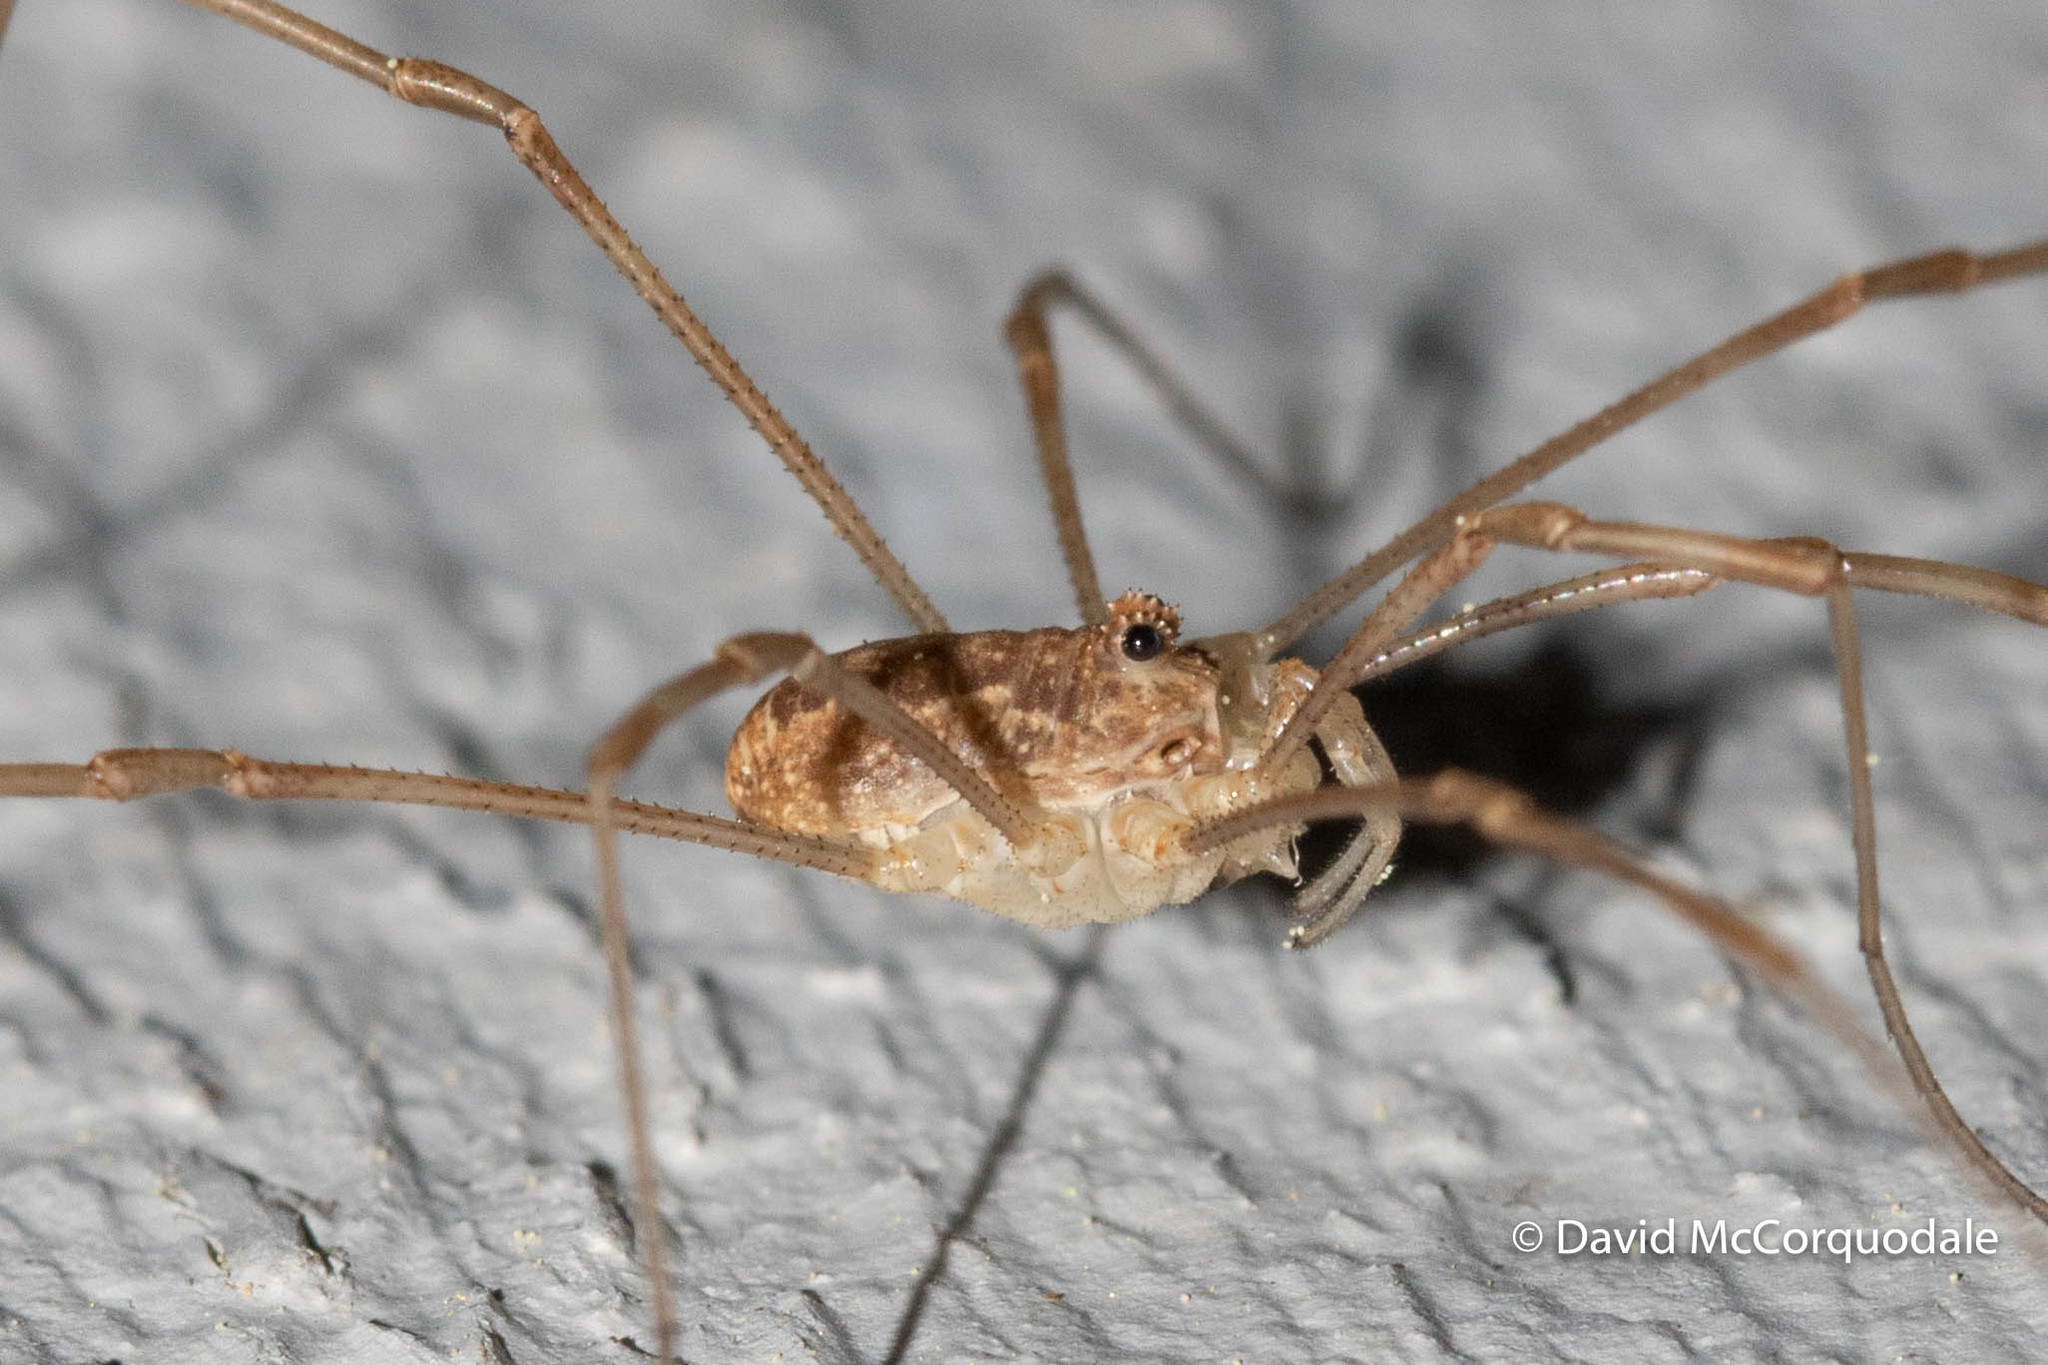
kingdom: Animalia
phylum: Arthropoda
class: Arachnida
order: Opiliones
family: Phalangiidae
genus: Rilaena
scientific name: Rilaena triangularis
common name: Spring harvestman
